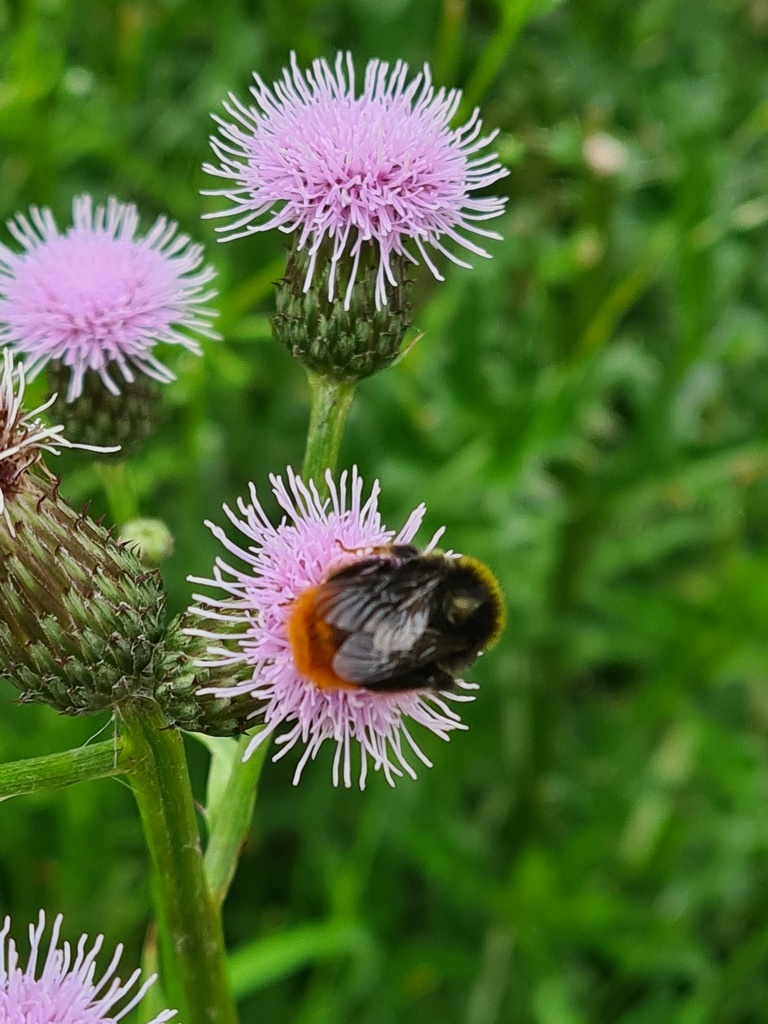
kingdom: Animalia
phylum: Arthropoda
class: Insecta
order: Hymenoptera
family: Apidae
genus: Bombus
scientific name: Bombus lapidarius
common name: Large red-tailed humble-bee
